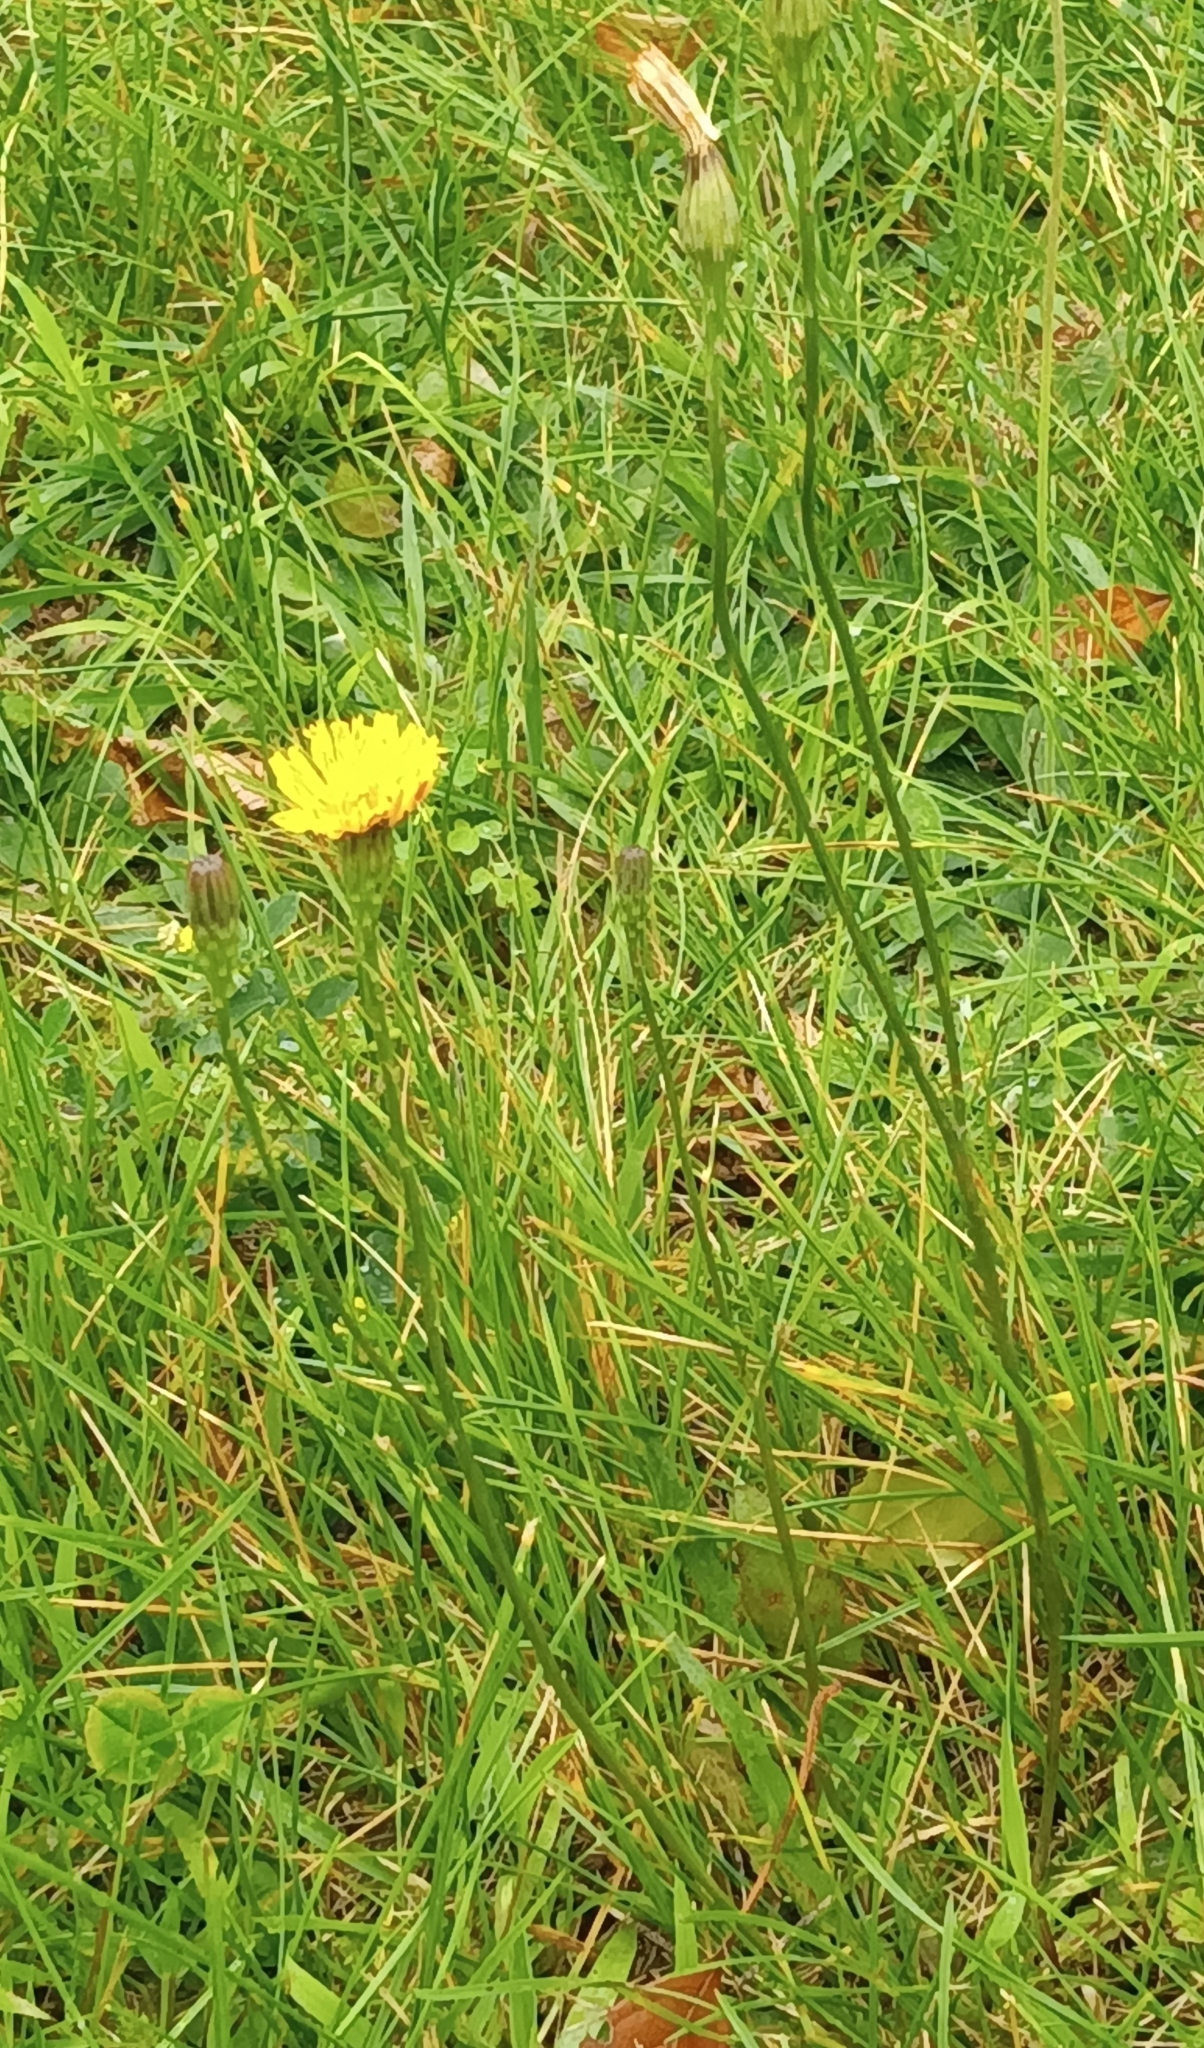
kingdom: Plantae
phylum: Tracheophyta
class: Magnoliopsida
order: Asterales
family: Asteraceae
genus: Scorzoneroides
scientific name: Scorzoneroides autumnalis
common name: Autumn hawkbit
